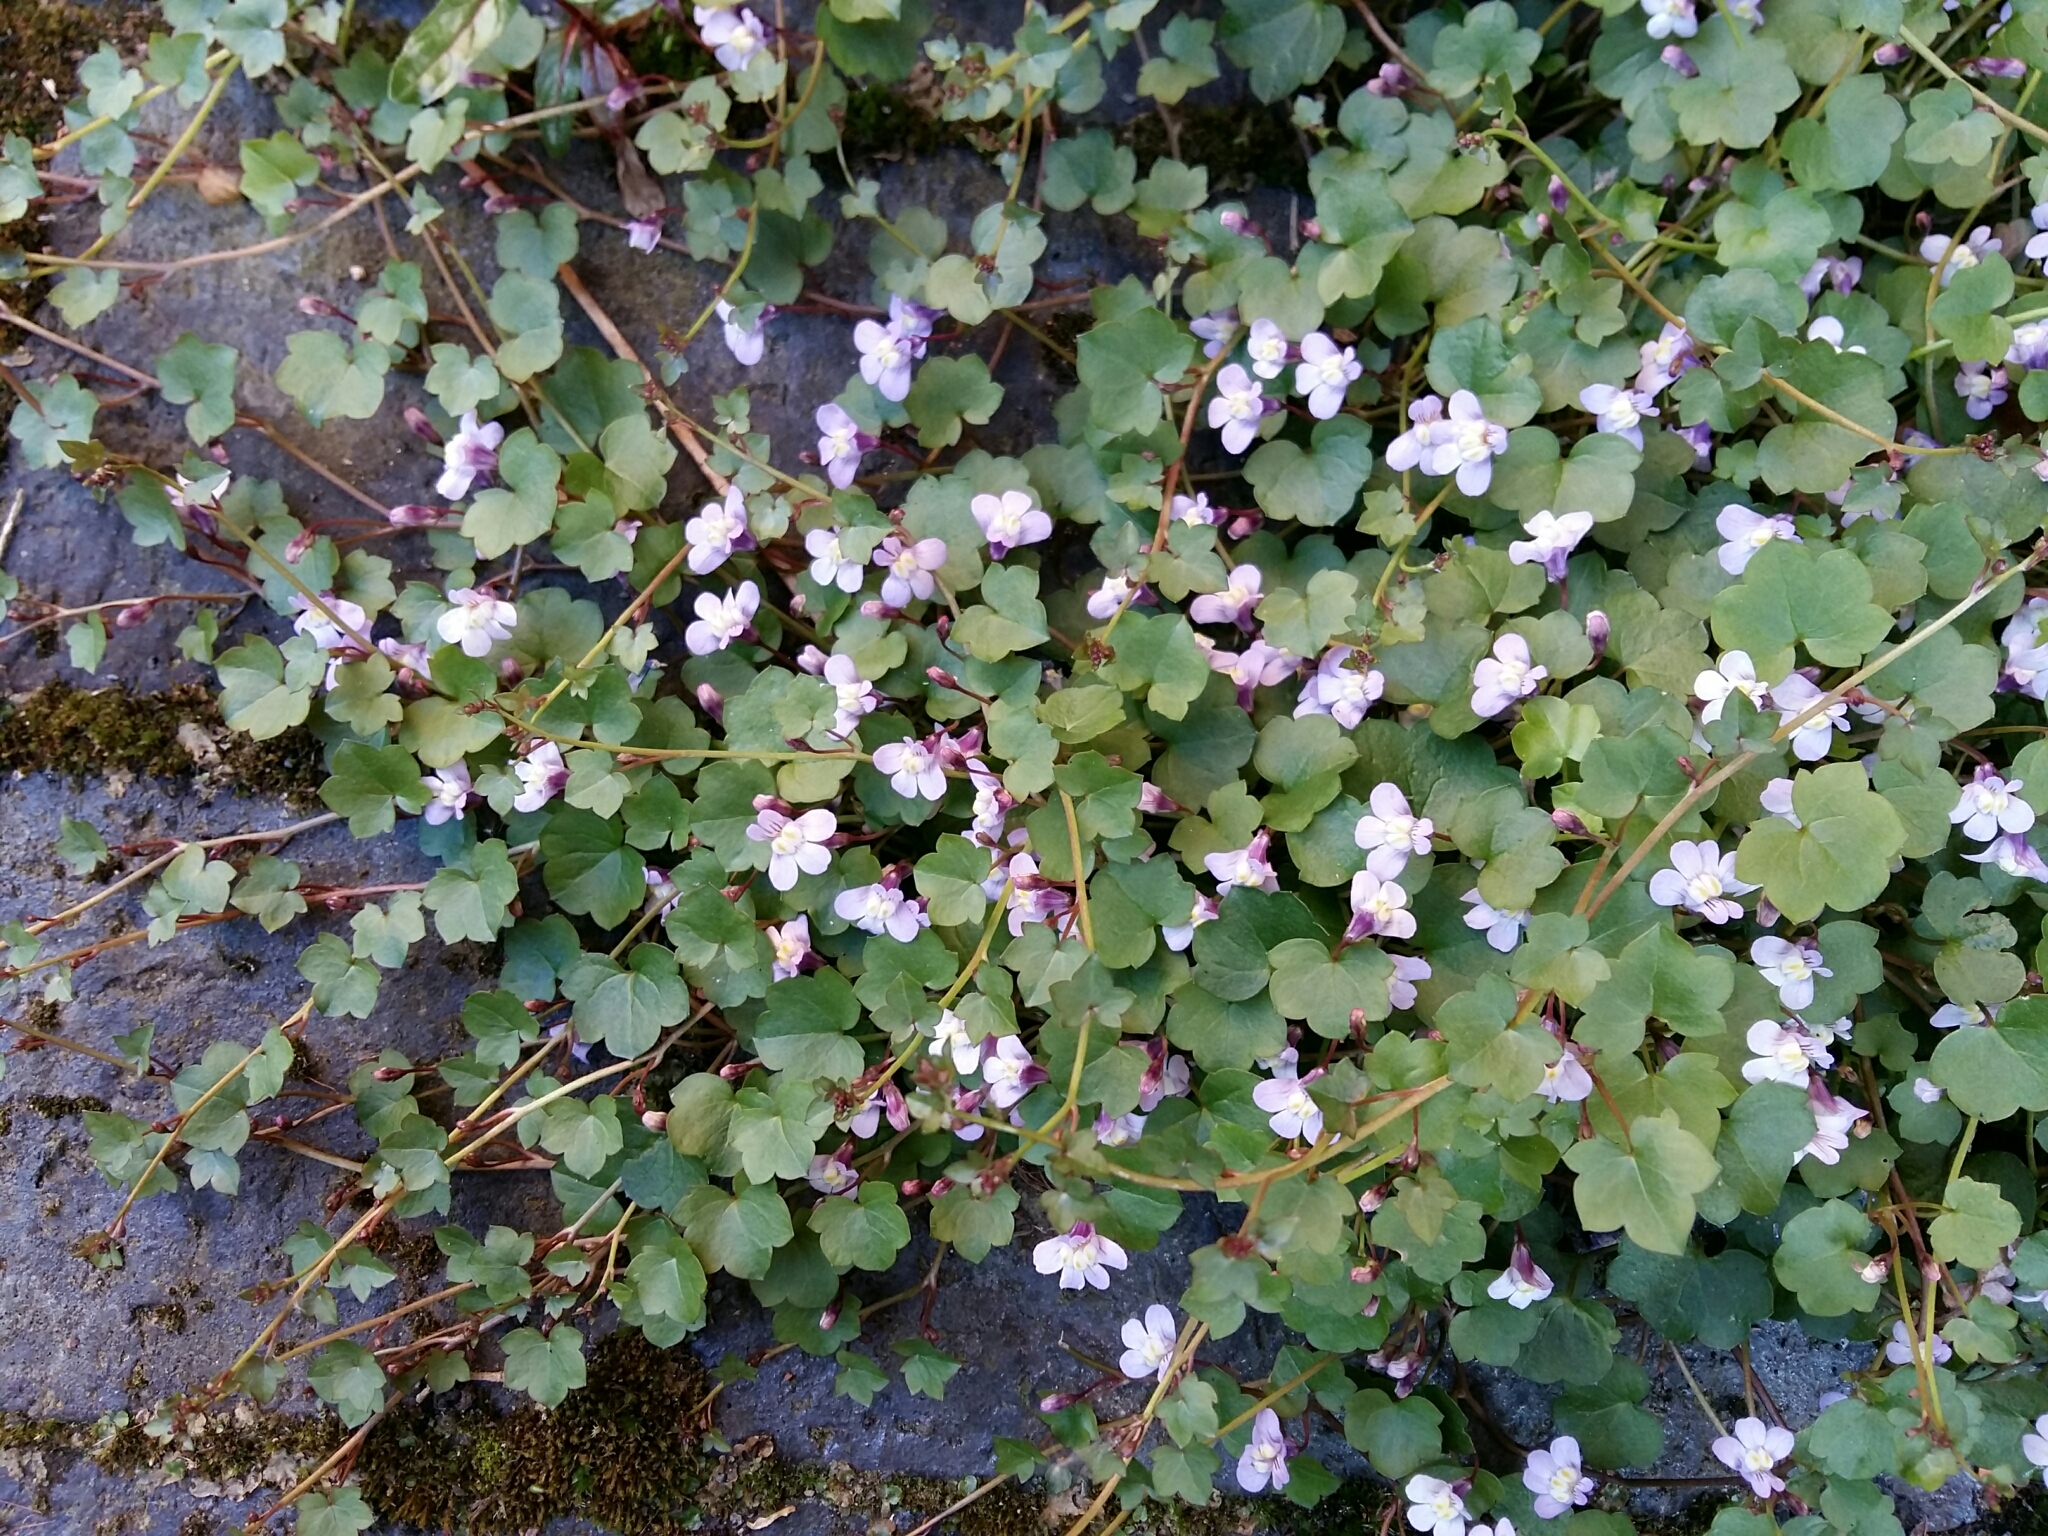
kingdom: Plantae
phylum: Tracheophyta
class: Magnoliopsida
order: Lamiales
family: Plantaginaceae
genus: Cymbalaria
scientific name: Cymbalaria muralis
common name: Ivy-leaved toadflax
